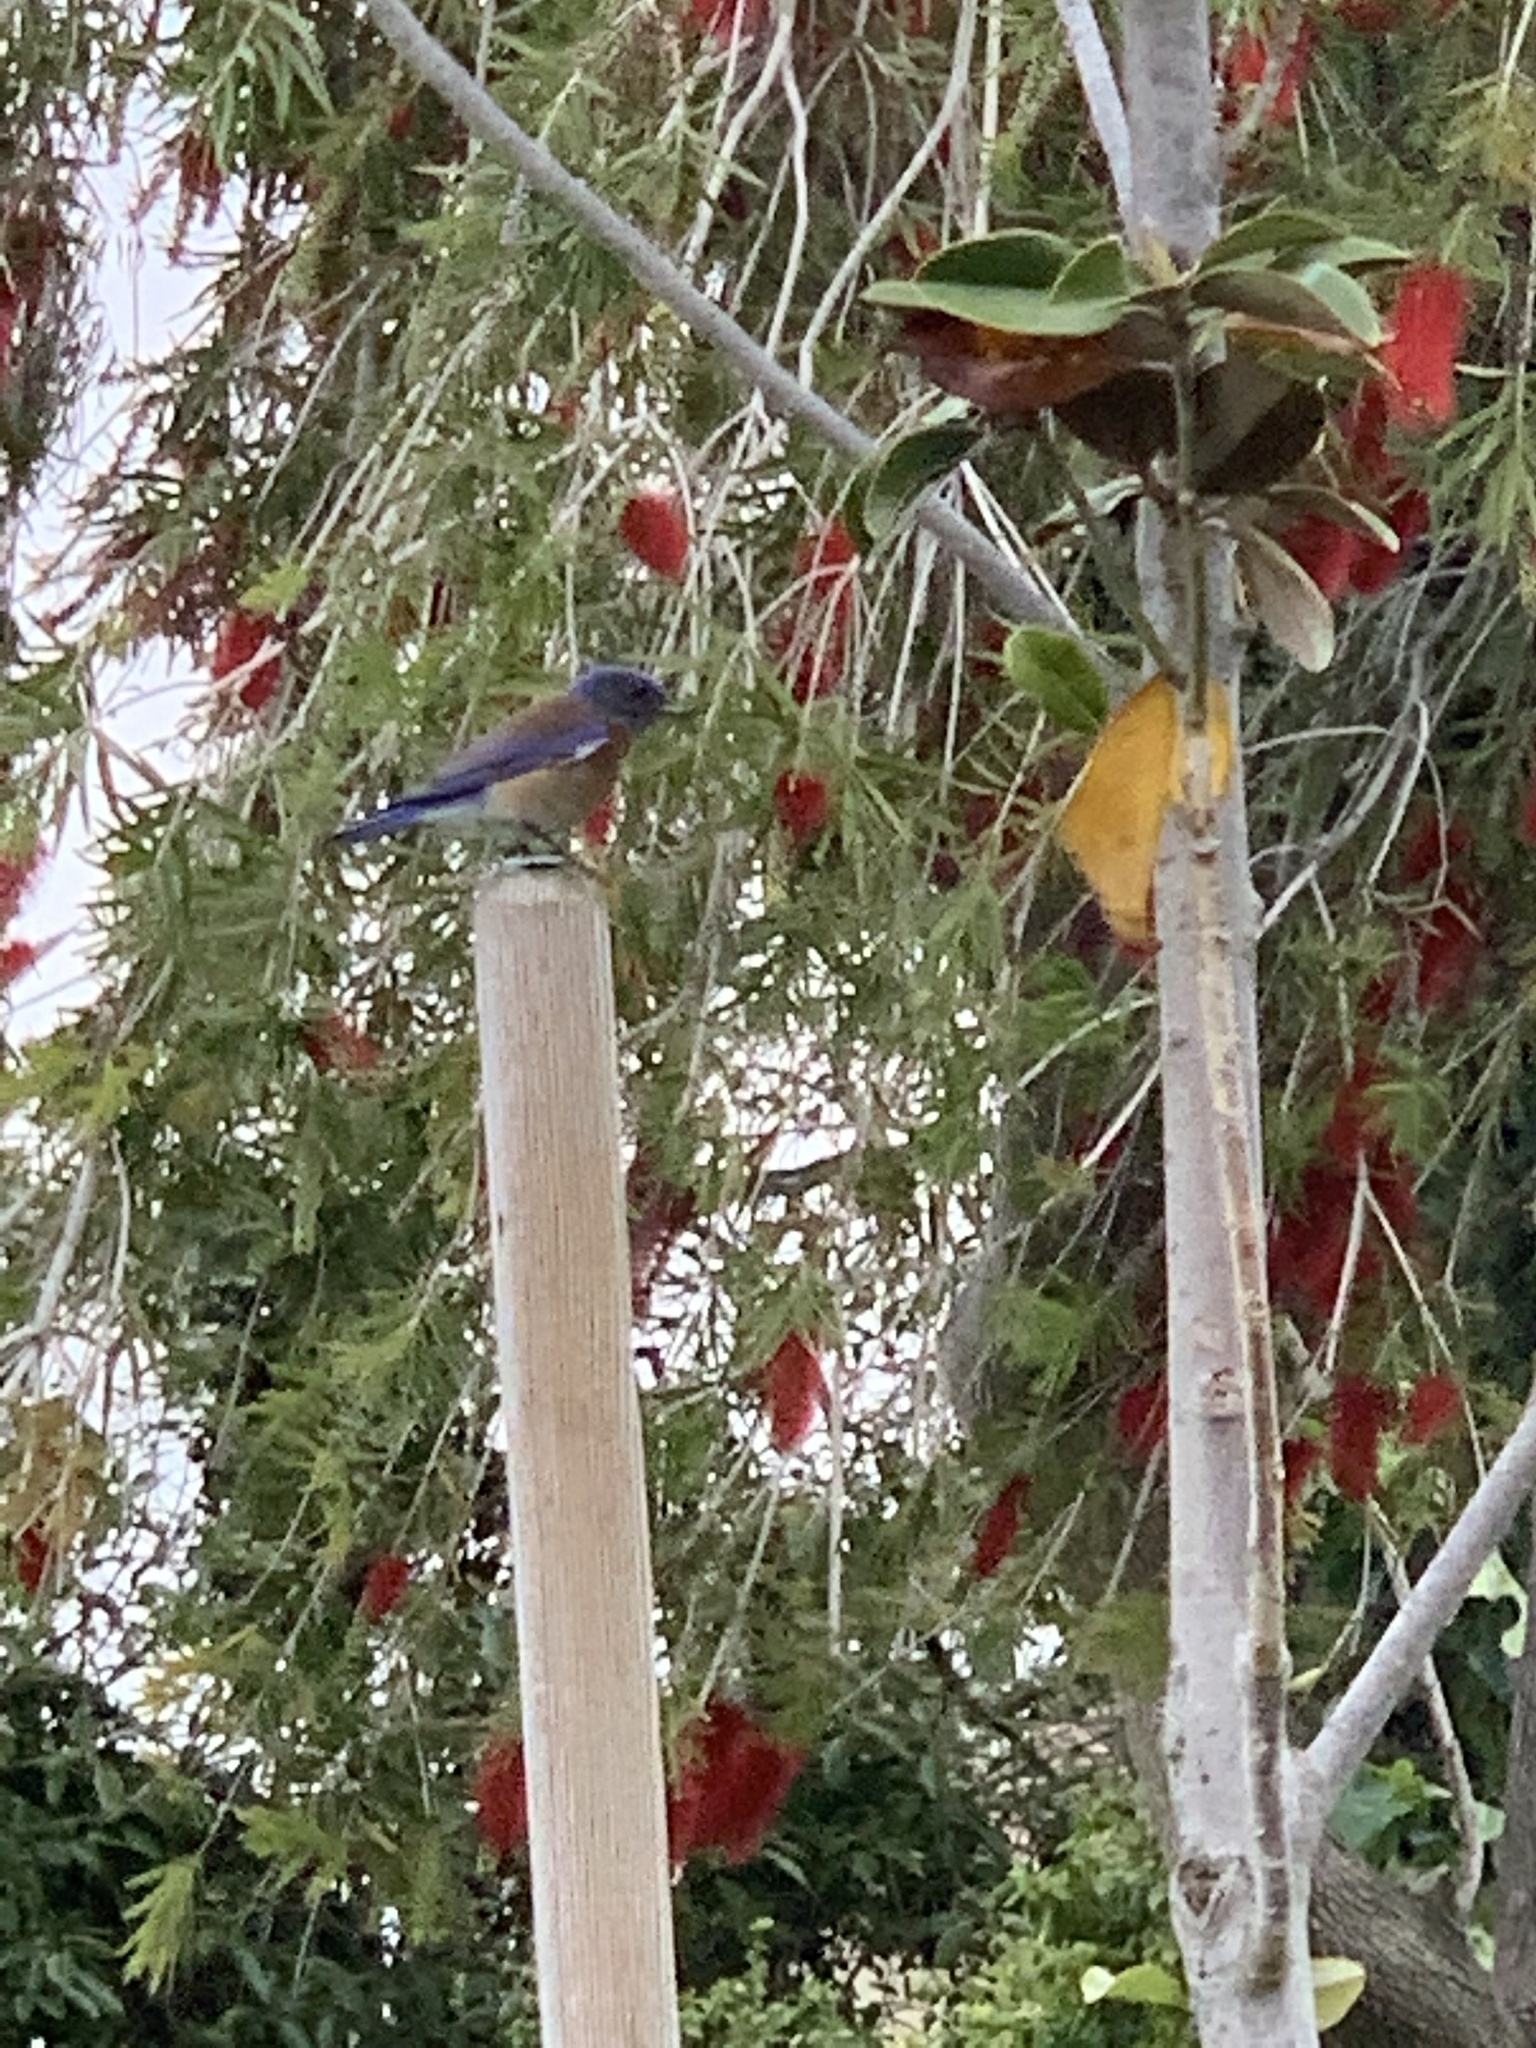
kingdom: Animalia
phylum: Chordata
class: Aves
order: Passeriformes
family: Turdidae
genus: Sialia
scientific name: Sialia mexicana
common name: Western bluebird
